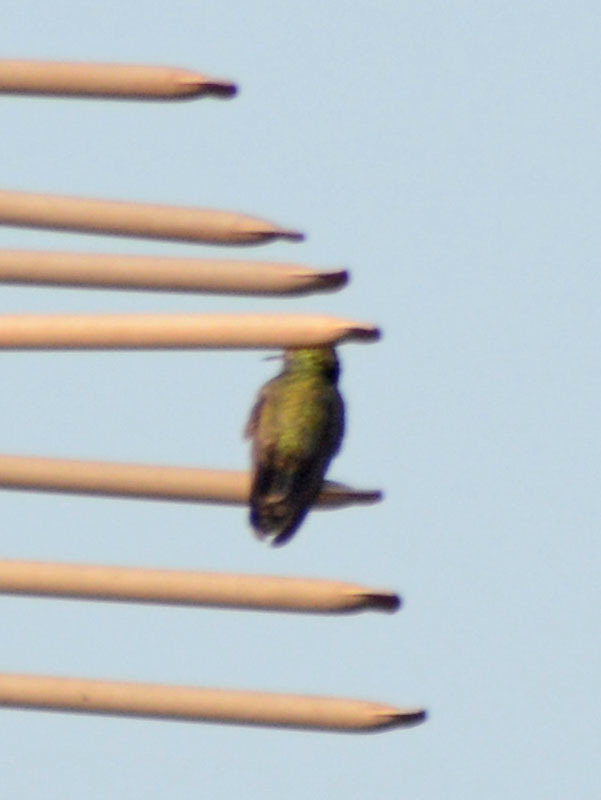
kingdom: Animalia
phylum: Chordata
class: Aves
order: Apodiformes
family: Trochilidae
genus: Cynanthus
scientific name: Cynanthus latirostris
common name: Broad-billed hummingbird
